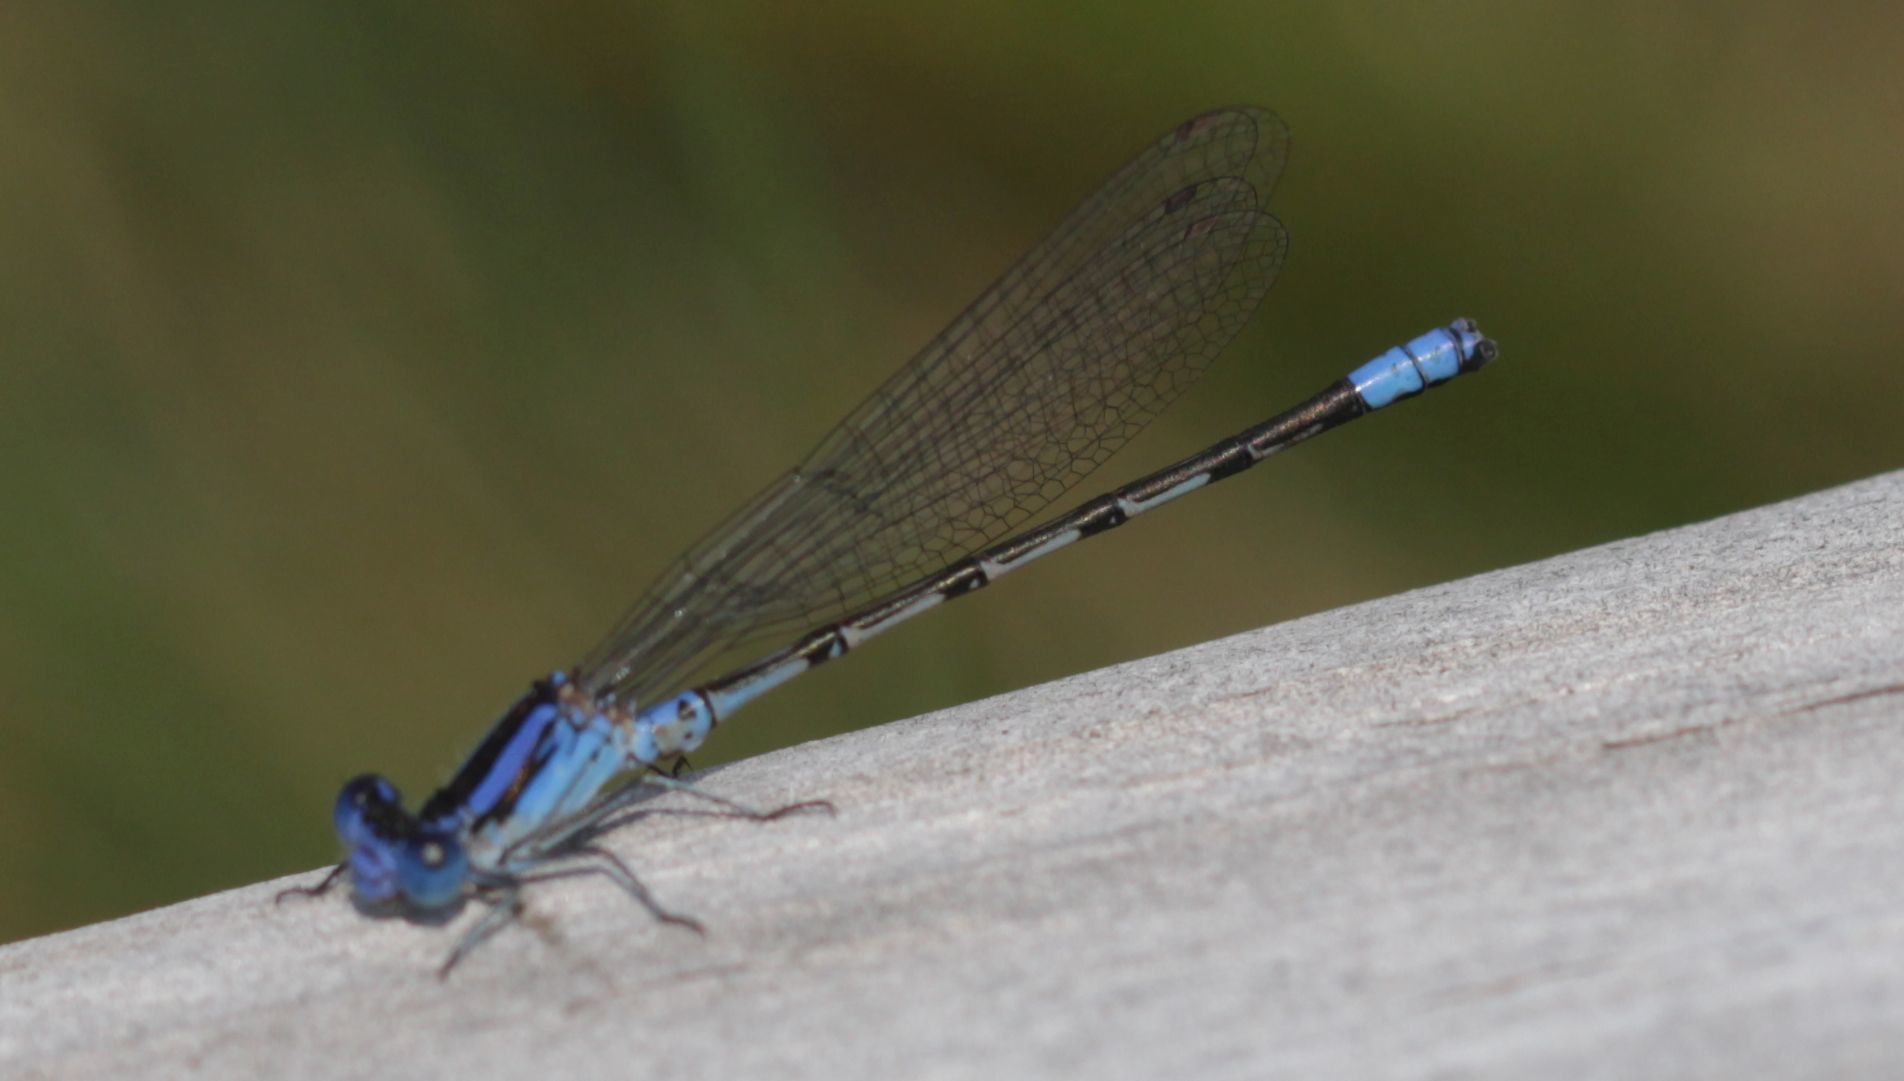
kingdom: Animalia
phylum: Arthropoda
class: Insecta
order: Odonata
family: Coenagrionidae
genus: Argia
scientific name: Argia alberta
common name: Paiute dancer
